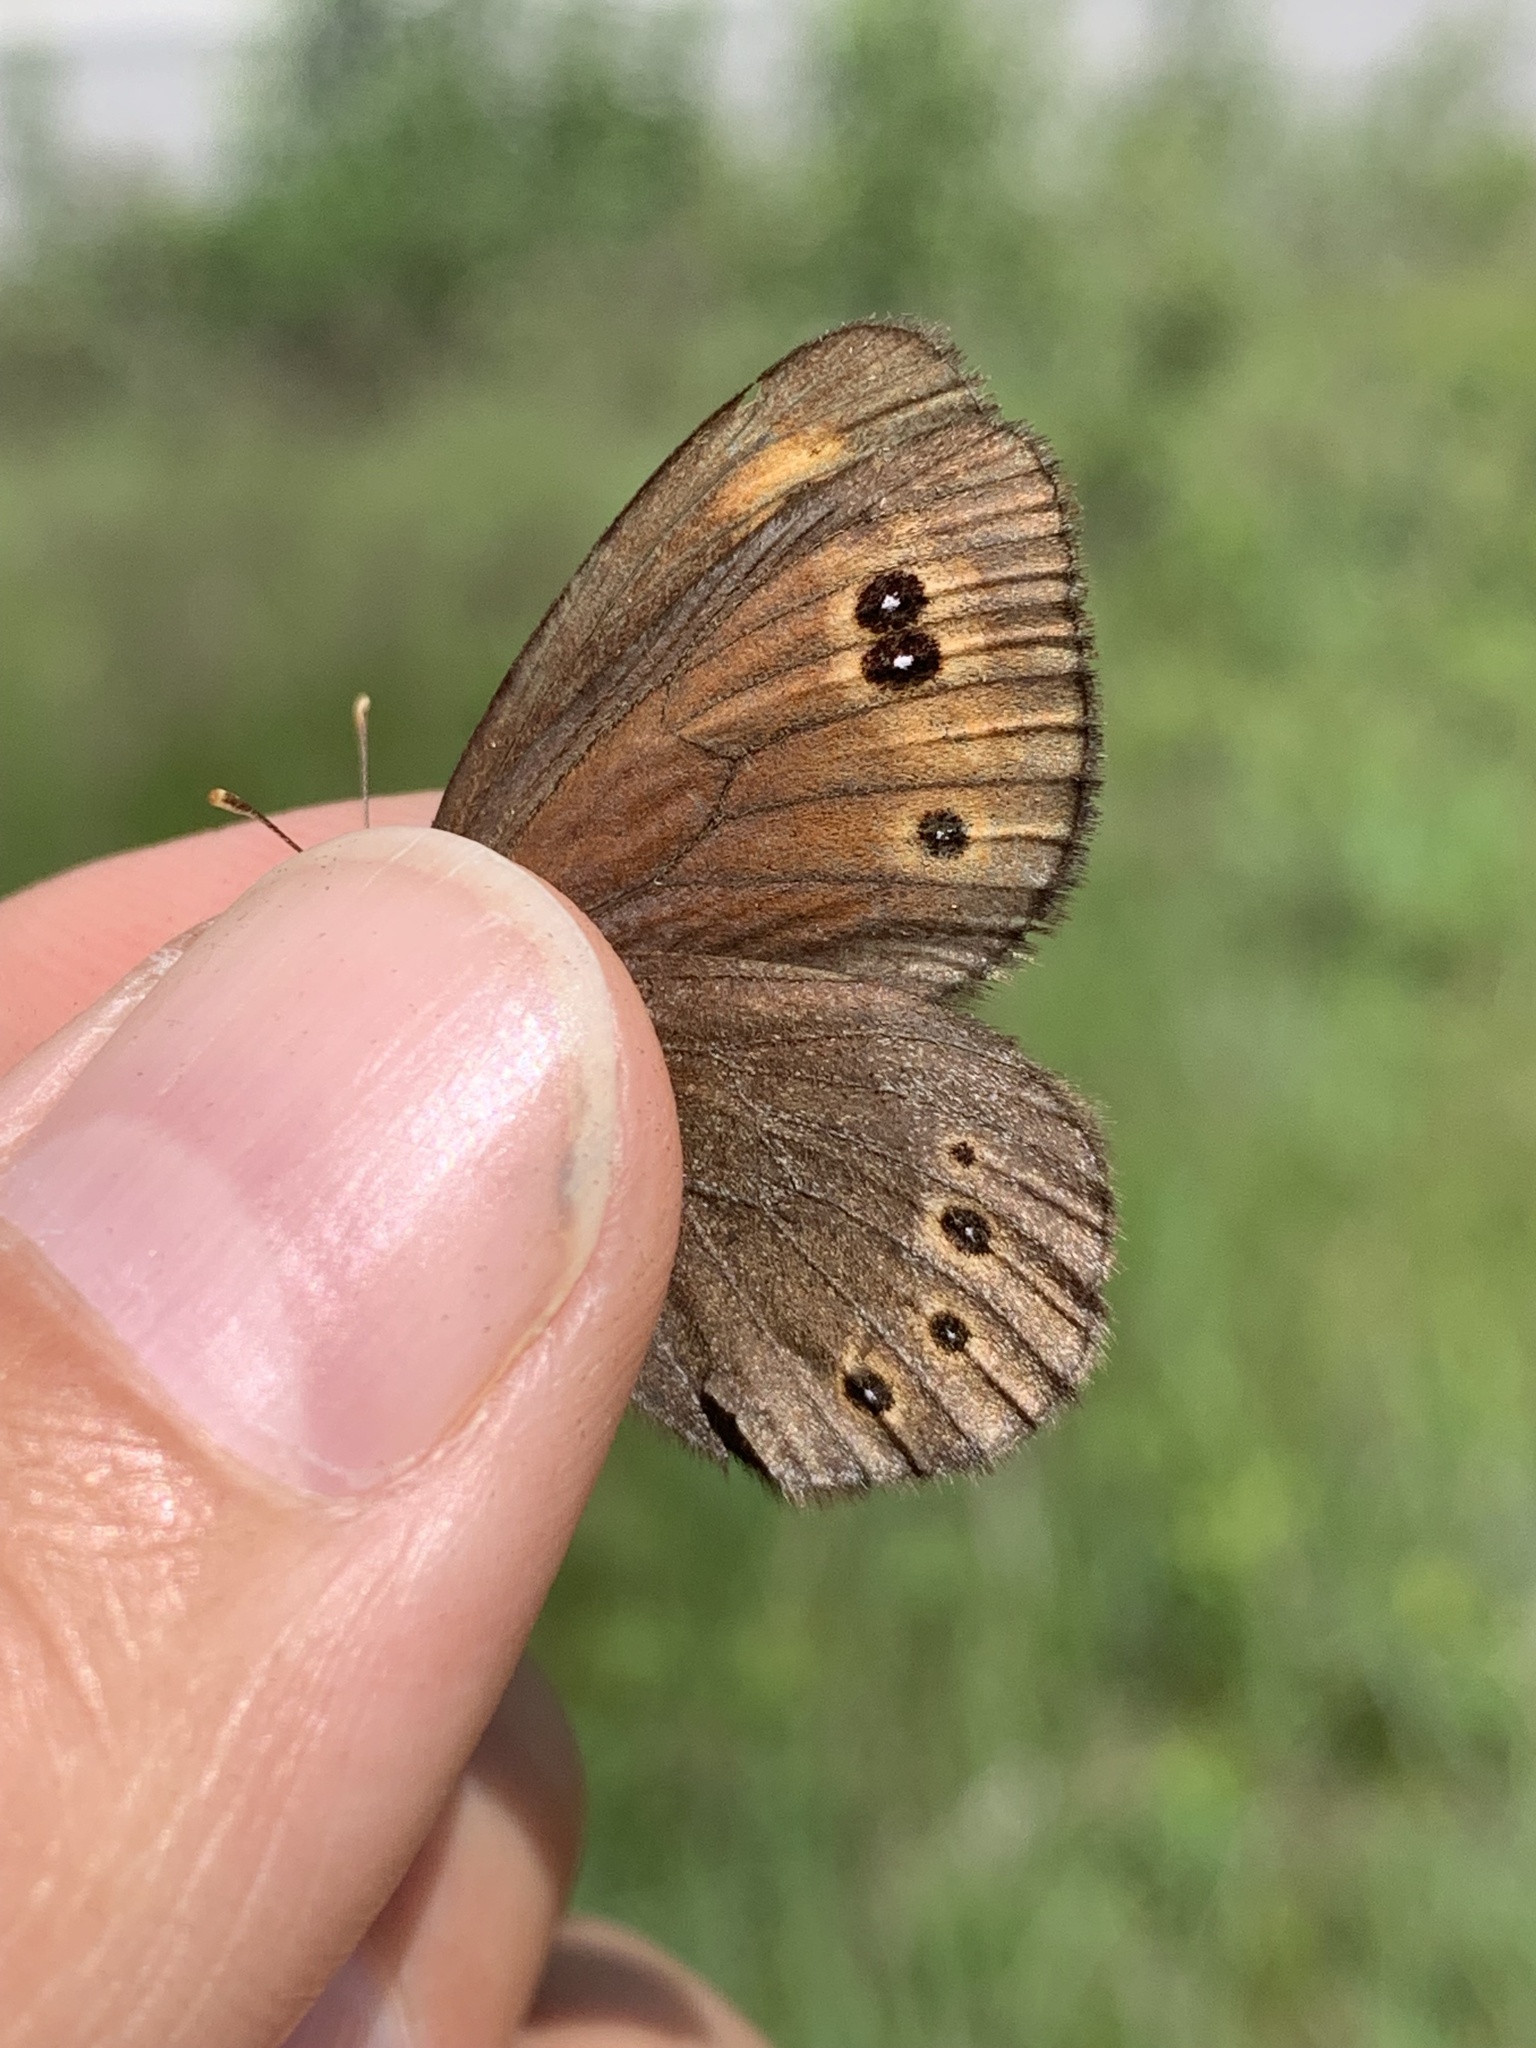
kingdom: Animalia
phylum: Arthropoda
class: Insecta
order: Lepidoptera
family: Nymphalidae
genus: Erebia
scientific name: Erebia epipsodea
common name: Common alpine
